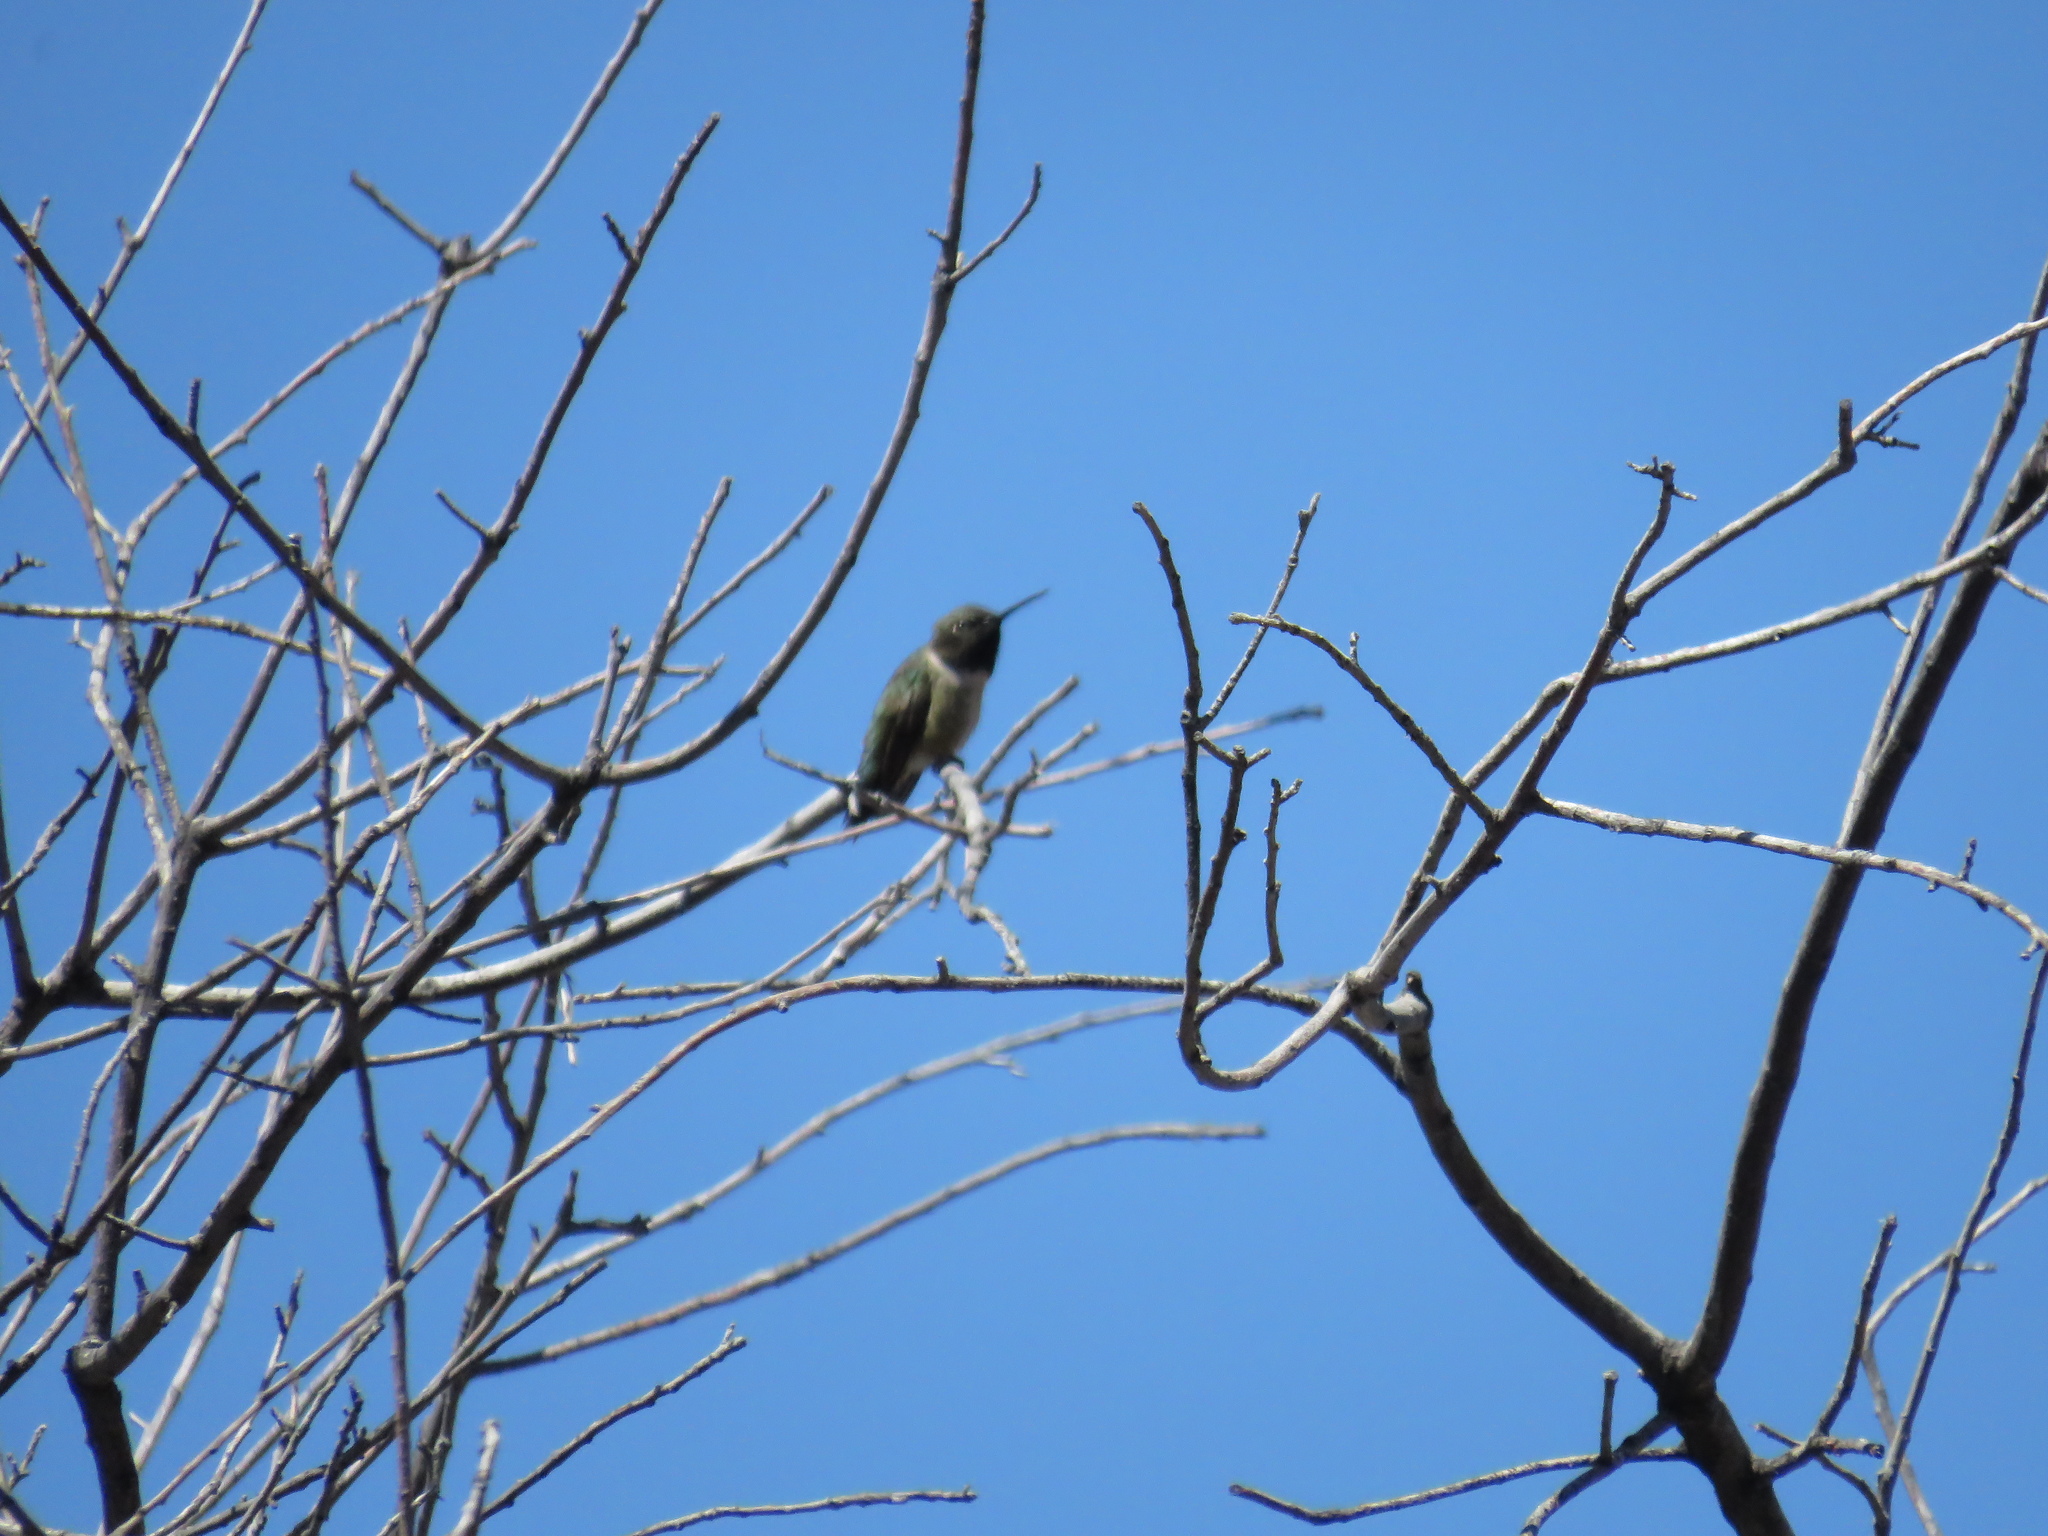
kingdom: Animalia
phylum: Chordata
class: Aves
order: Apodiformes
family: Trochilidae
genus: Archilochus
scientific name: Archilochus alexandri
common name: Black-chinned hummingbird
